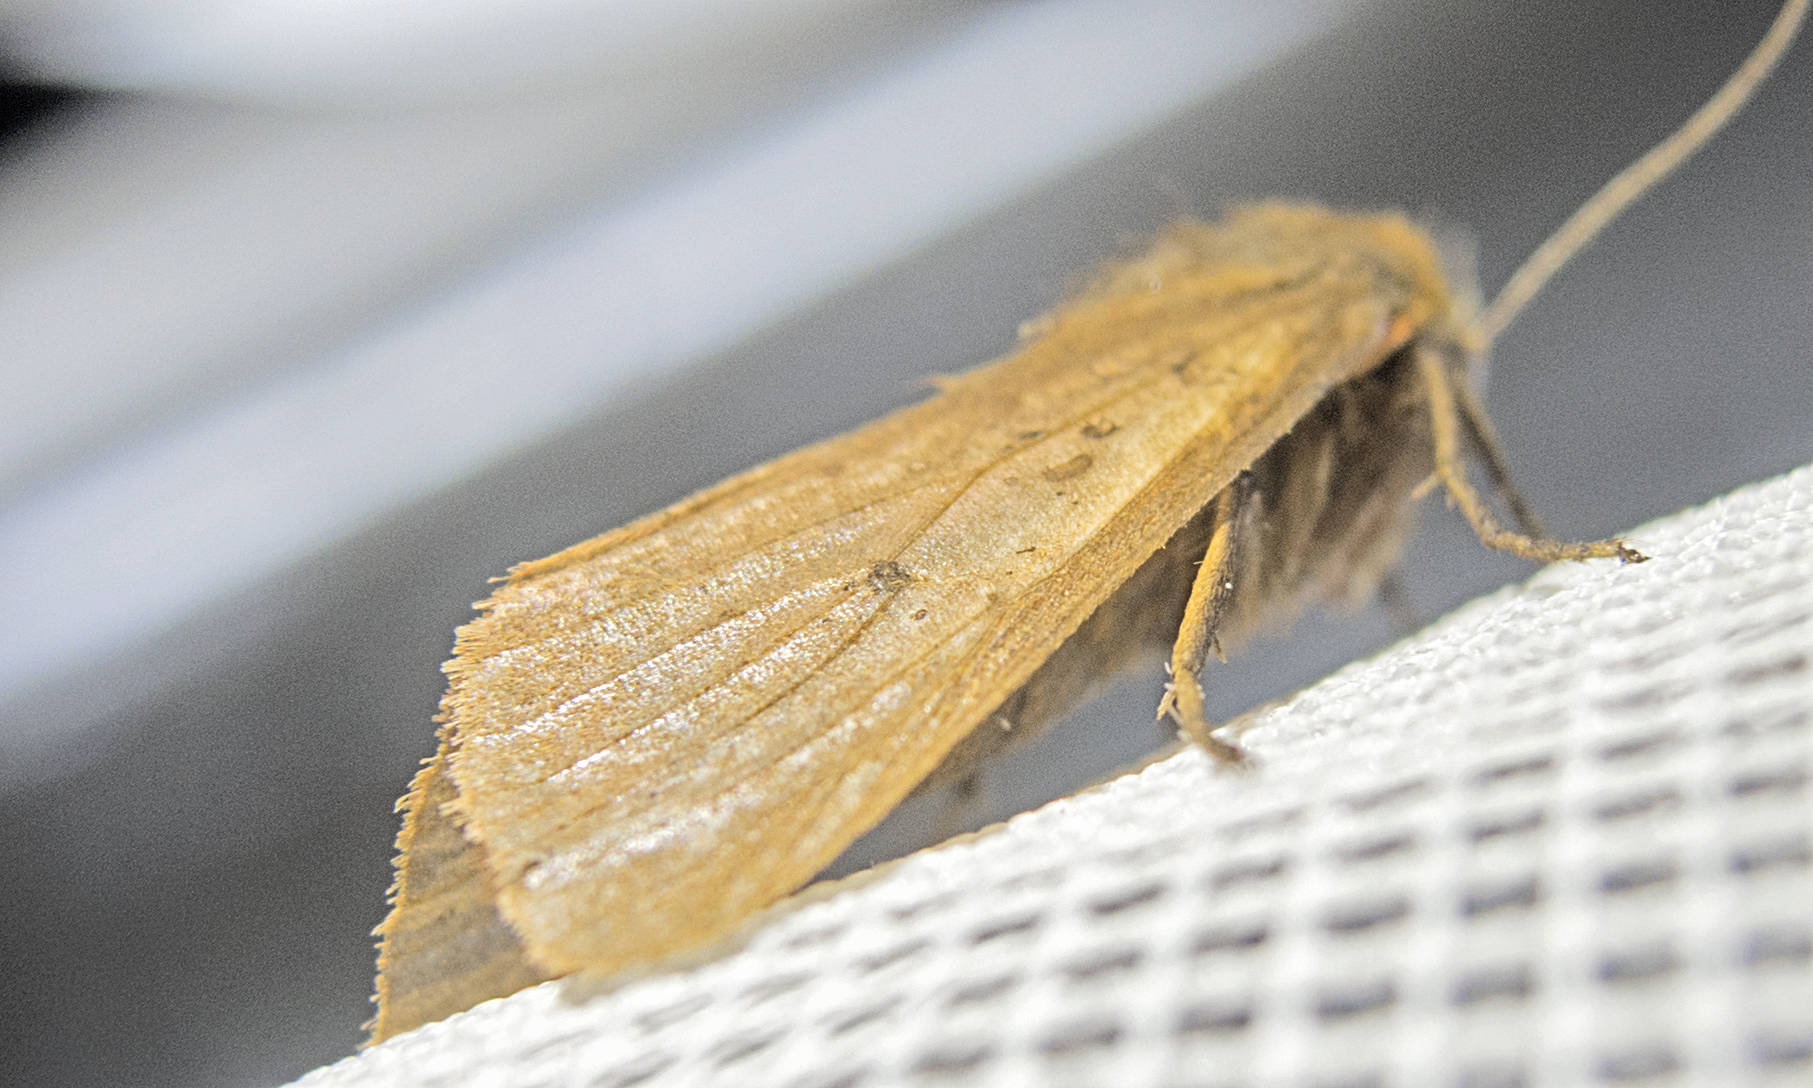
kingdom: Animalia
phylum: Arthropoda
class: Insecta
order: Lepidoptera
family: Erebidae
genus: Phragmatobia
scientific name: Phragmatobia fuliginosa
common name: Ruby tiger
